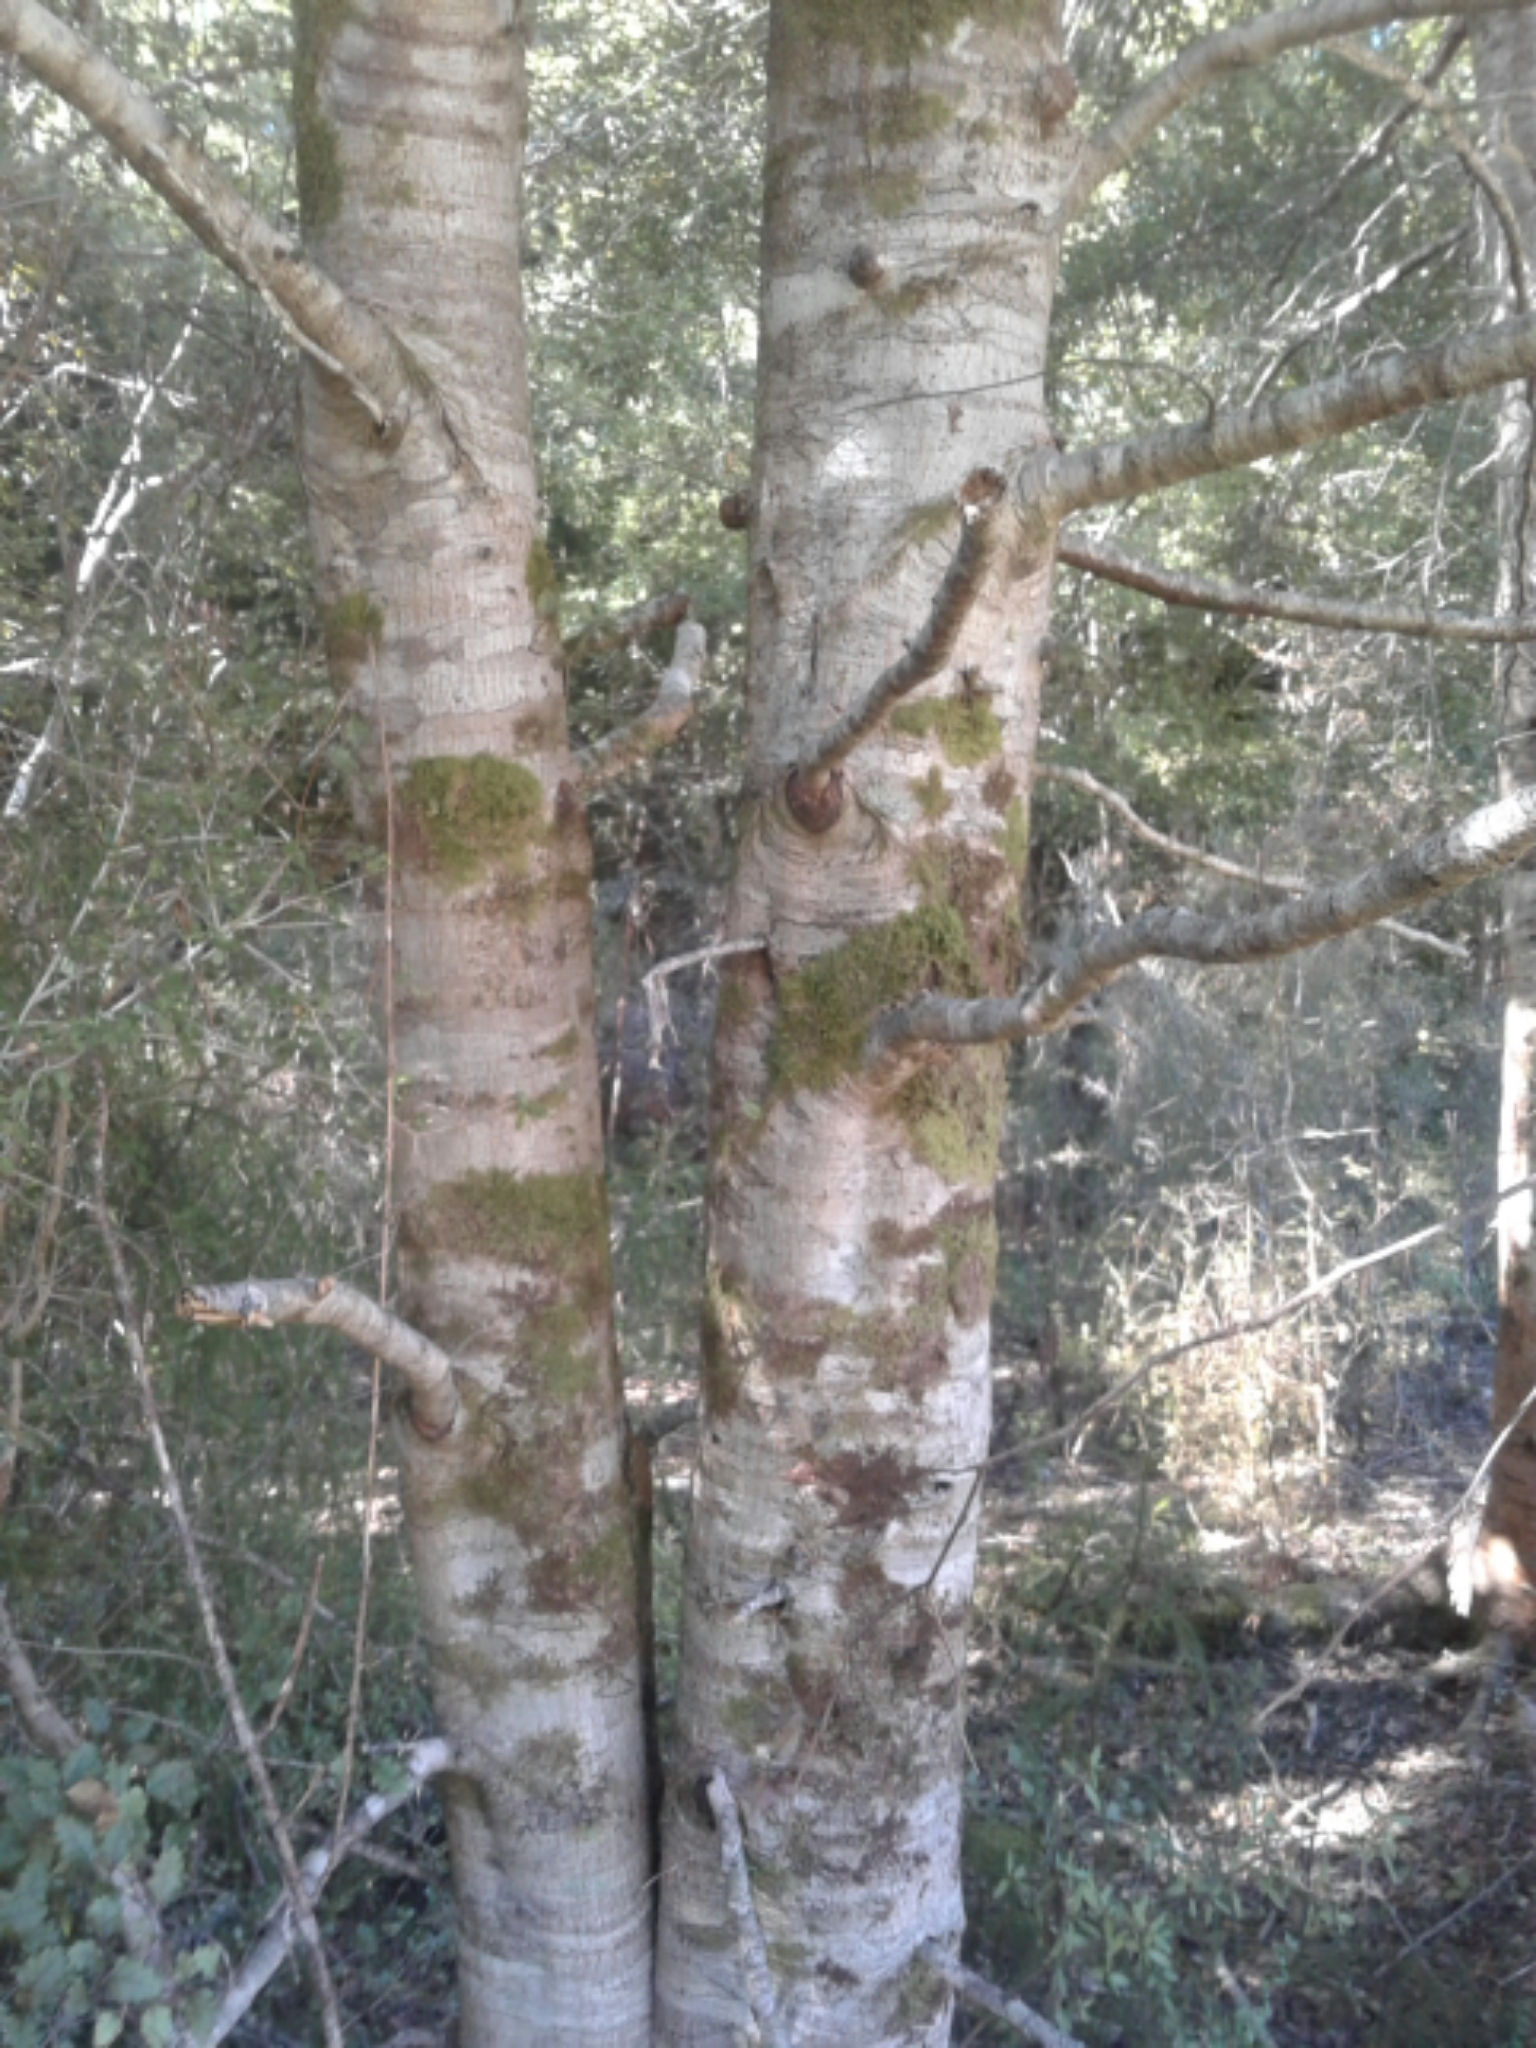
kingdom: Plantae
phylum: Tracheophyta
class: Magnoliopsida
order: Fagales
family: Nothofagaceae
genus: Nothofagus
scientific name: Nothofagus fusca
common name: Red beech
